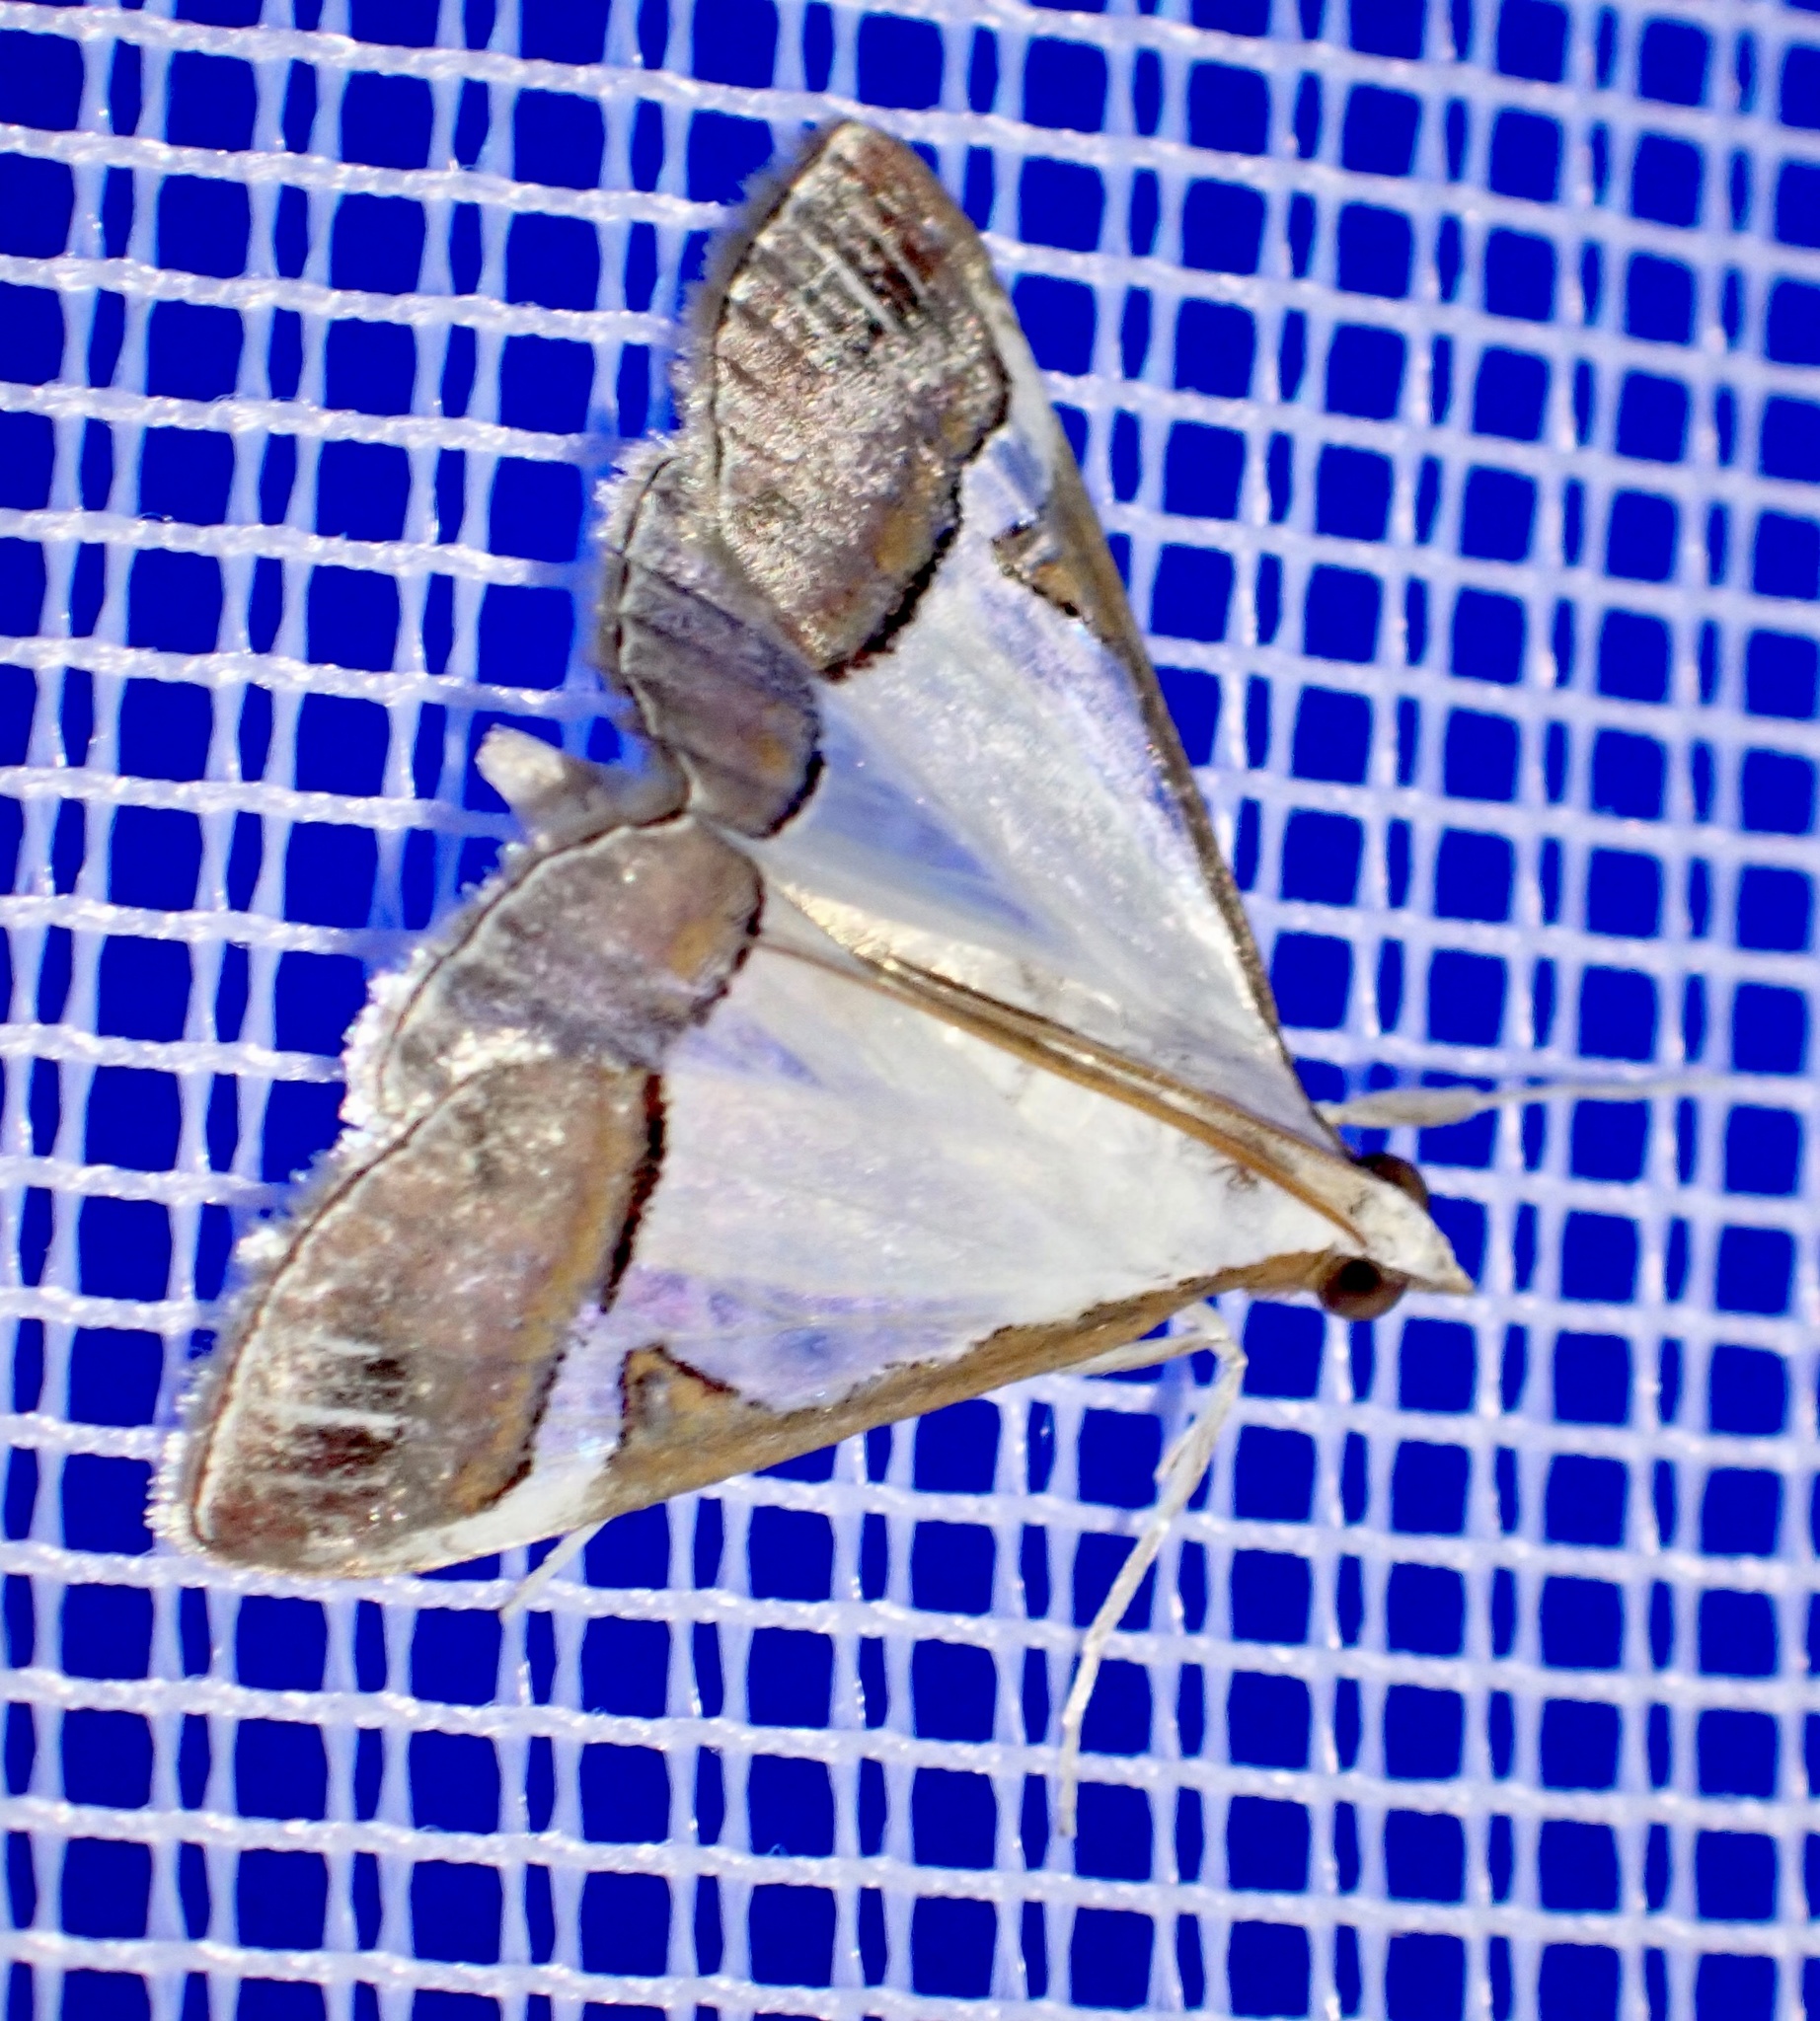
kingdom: Animalia
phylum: Arthropoda
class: Insecta
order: Lepidoptera
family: Crambidae
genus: Autocharis
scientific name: Autocharis margaritalis
